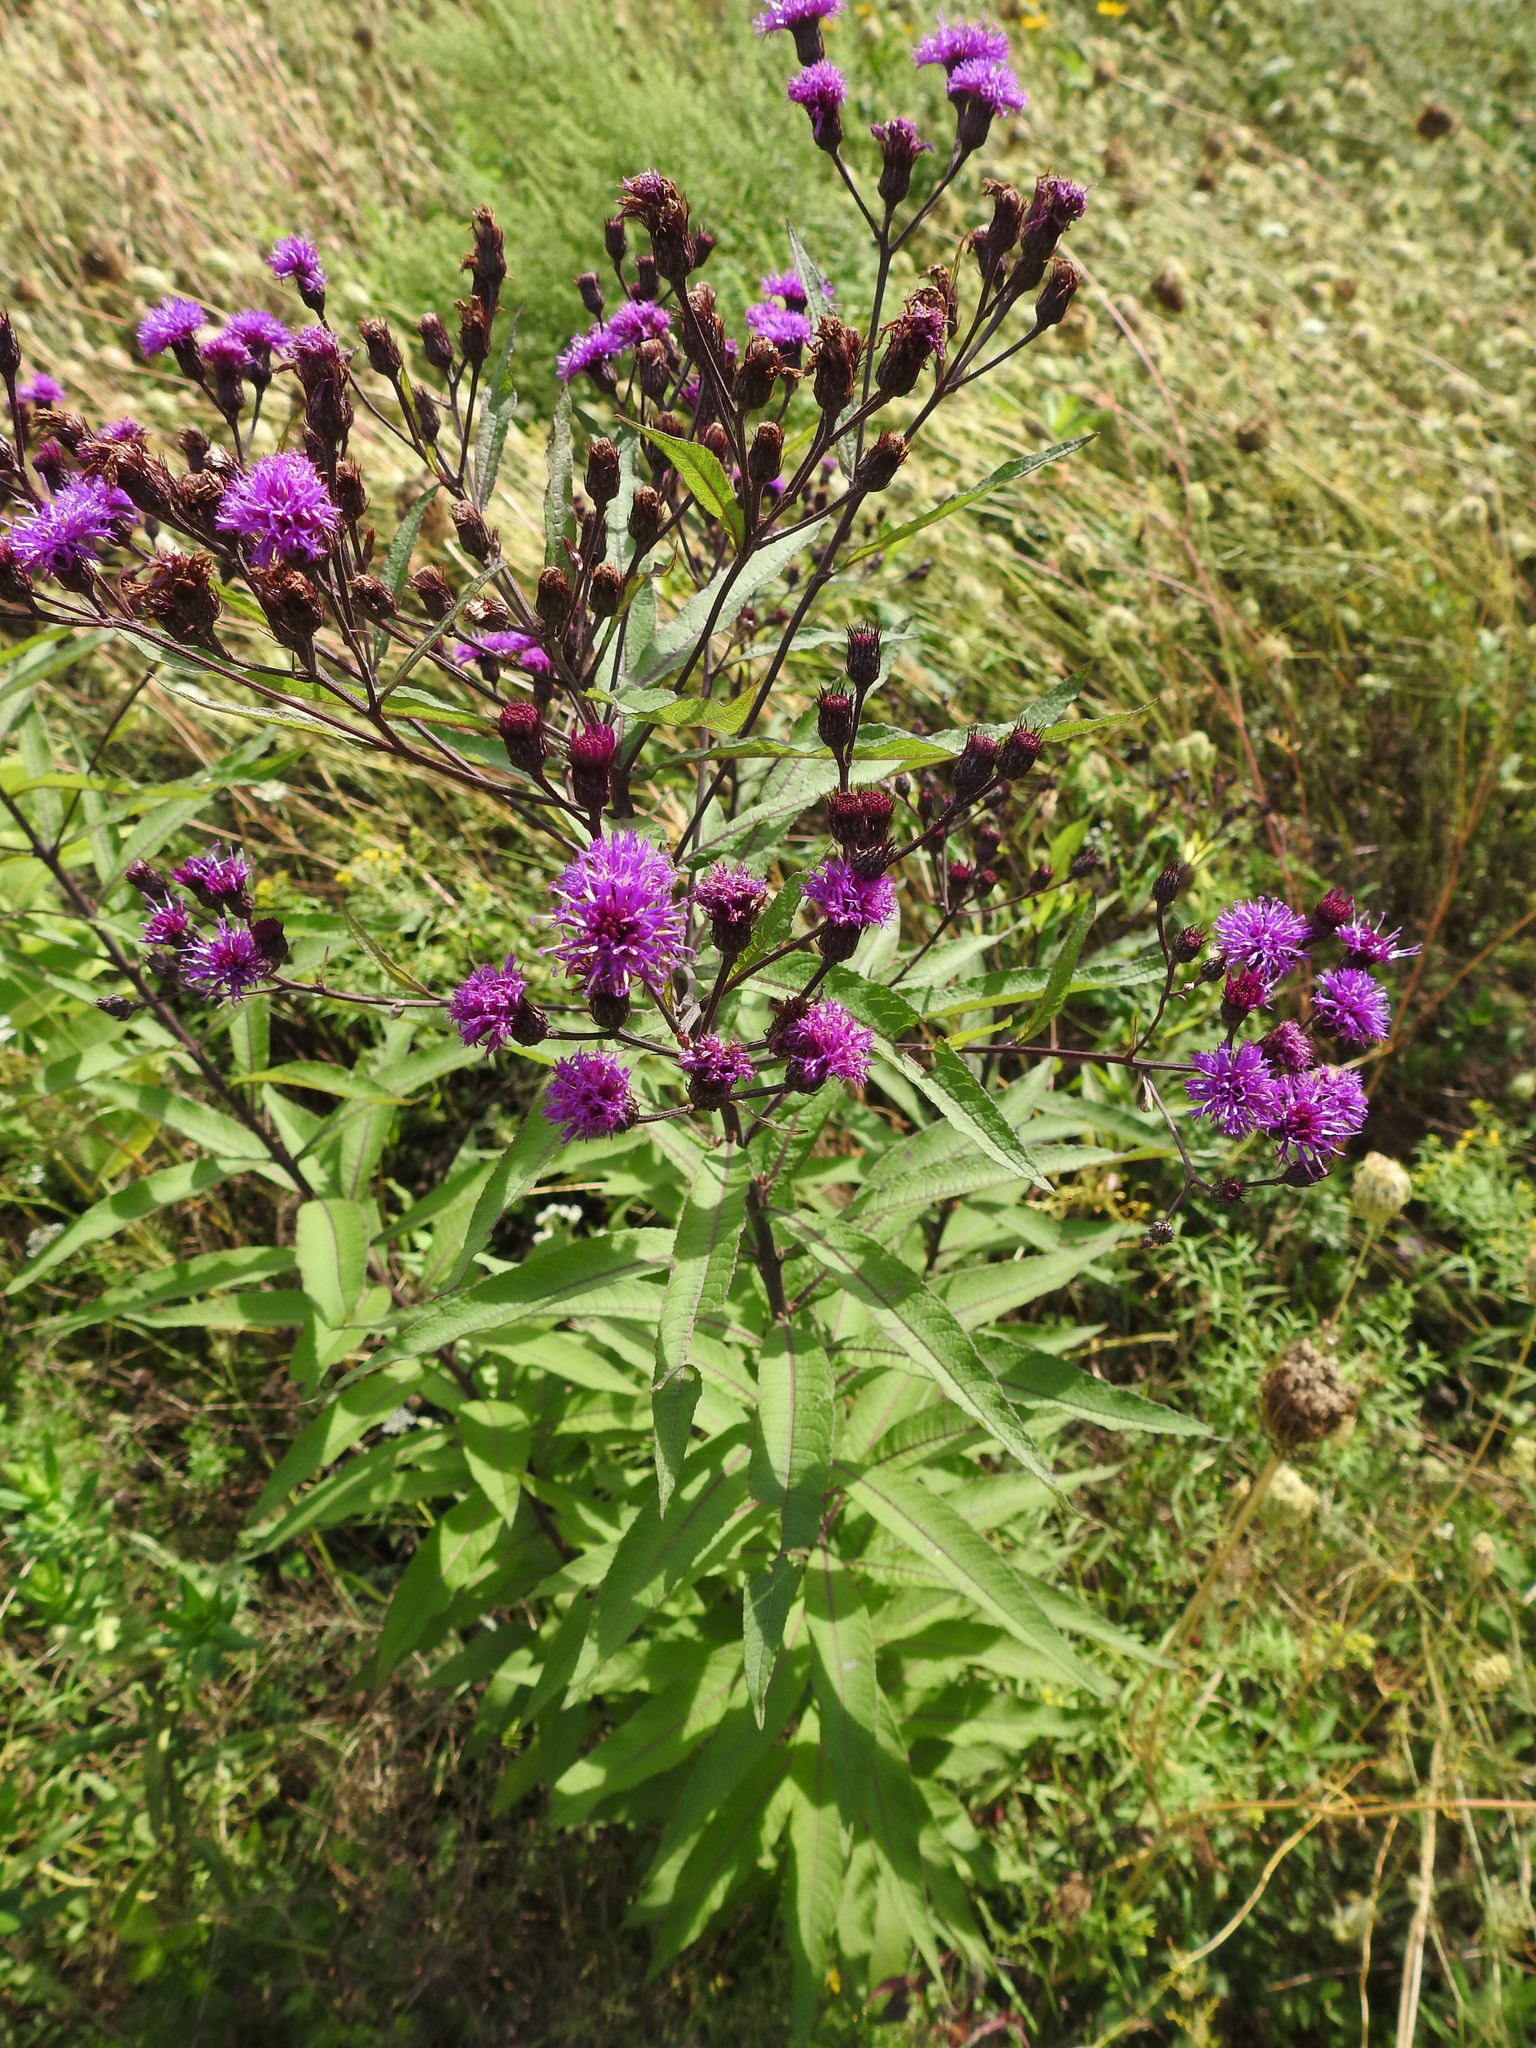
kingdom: Plantae
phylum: Tracheophyta
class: Magnoliopsida
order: Asterales
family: Asteraceae
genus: Vernonia
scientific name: Vernonia noveboracensis
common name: New york ironweed
